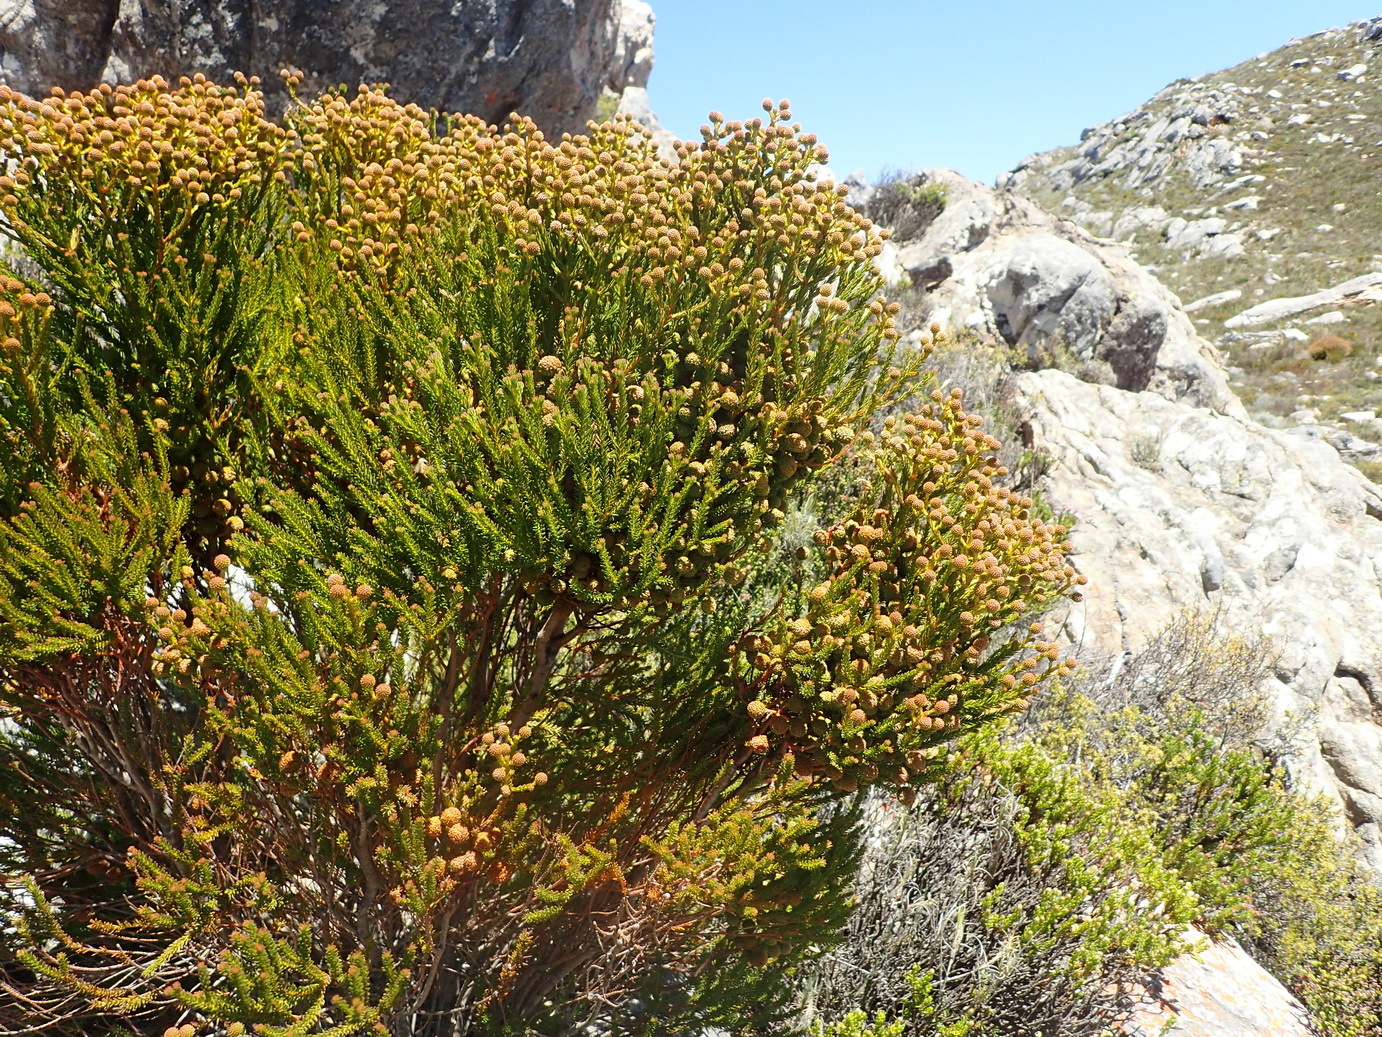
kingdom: Plantae
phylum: Tracheophyta
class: Magnoliopsida
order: Bruniales
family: Bruniaceae
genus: Berzelia
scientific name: Berzelia intermedia
